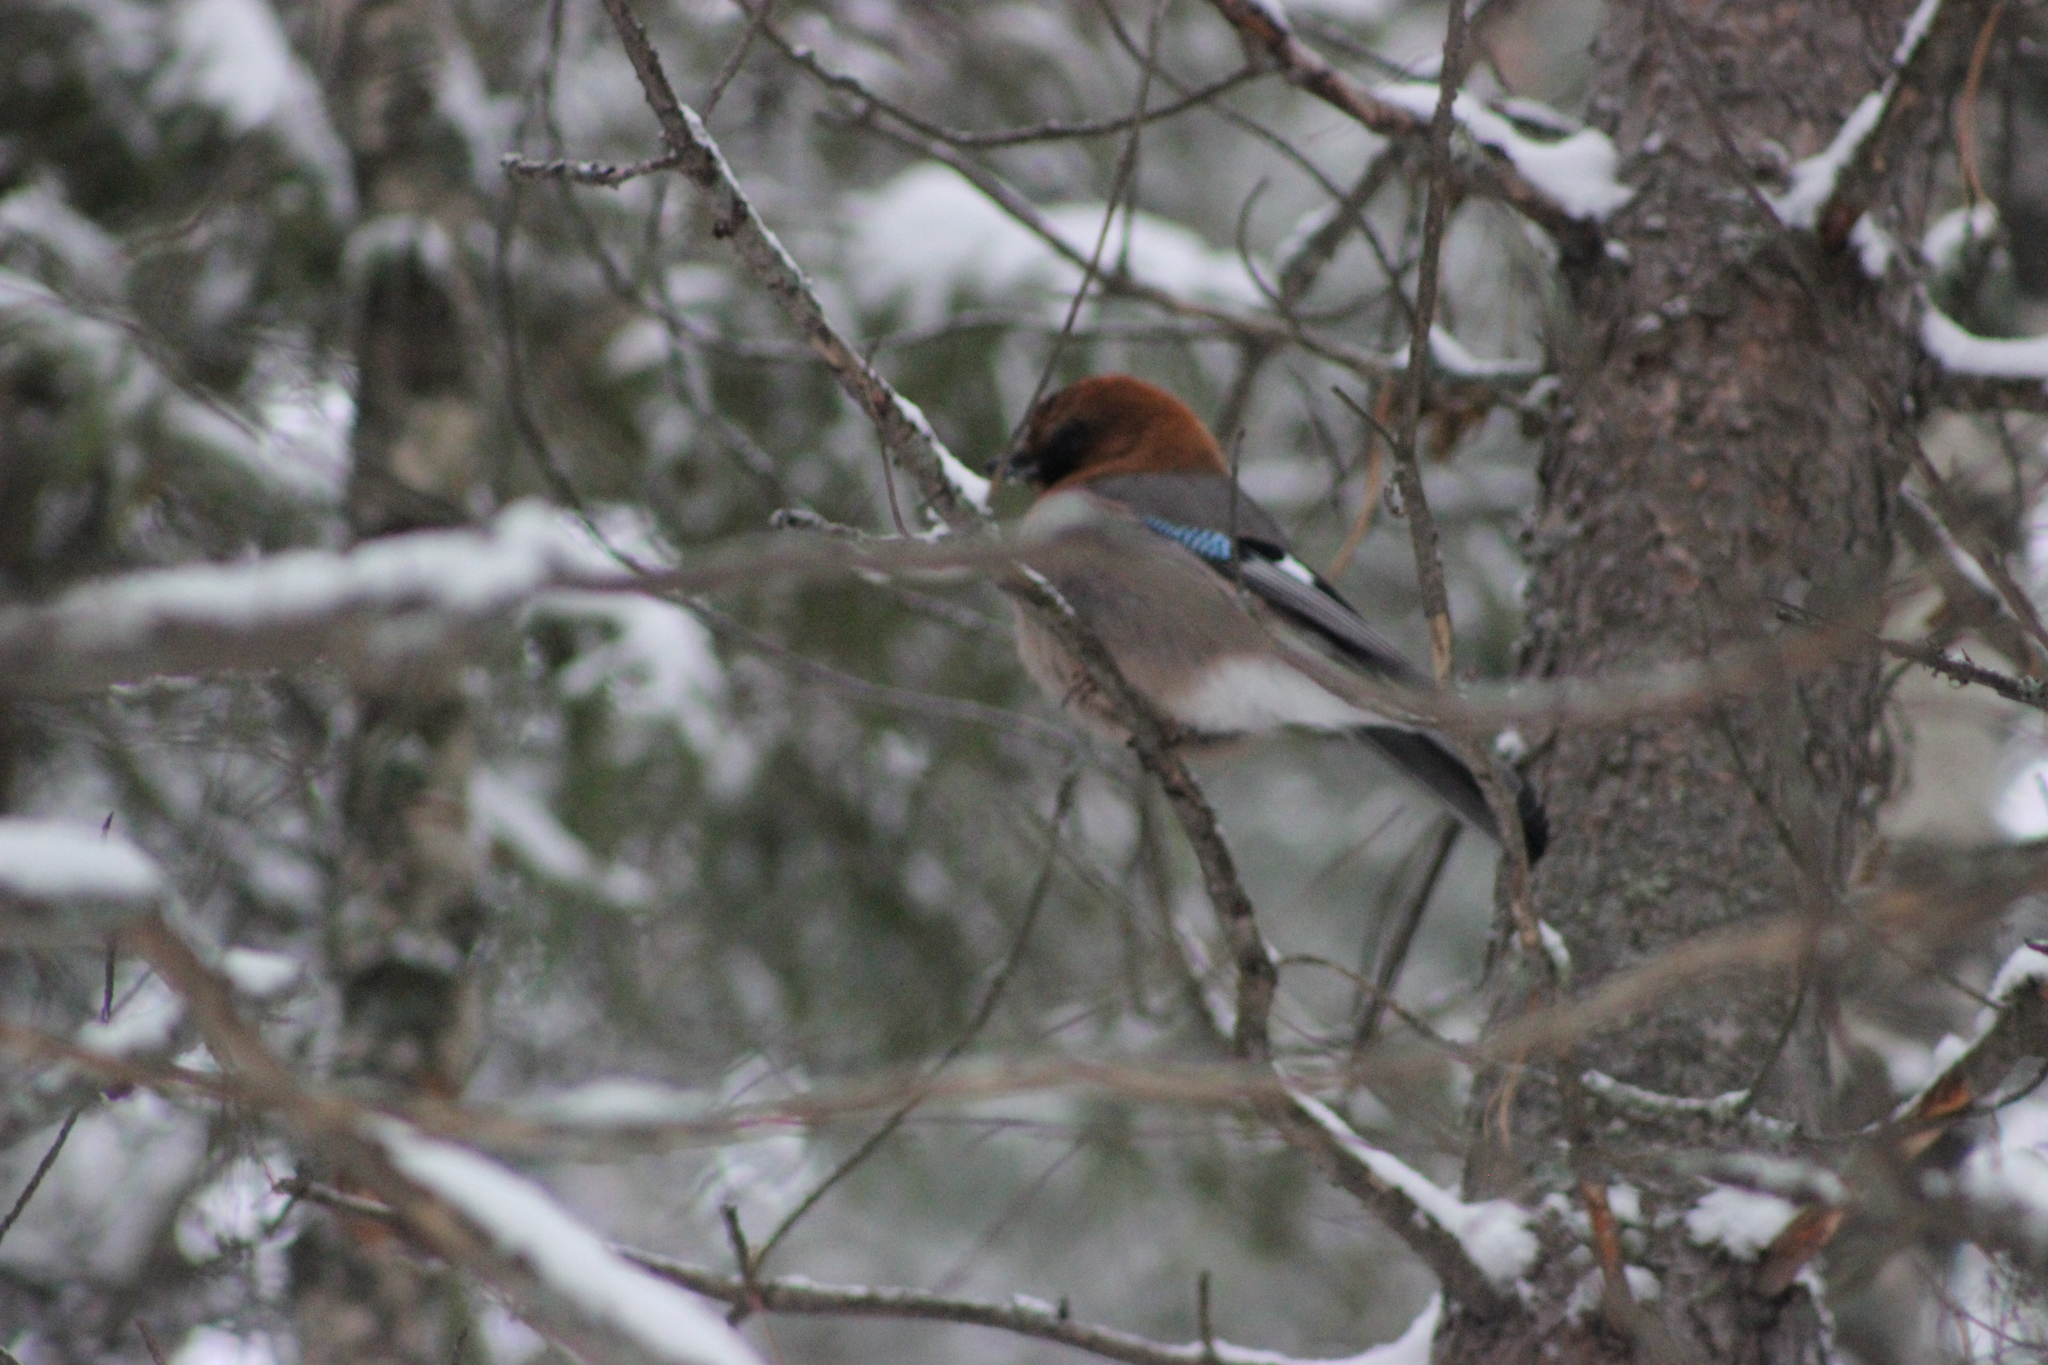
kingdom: Animalia
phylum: Chordata
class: Aves
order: Passeriformes
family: Corvidae
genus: Garrulus
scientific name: Garrulus glandarius
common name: Eurasian jay
